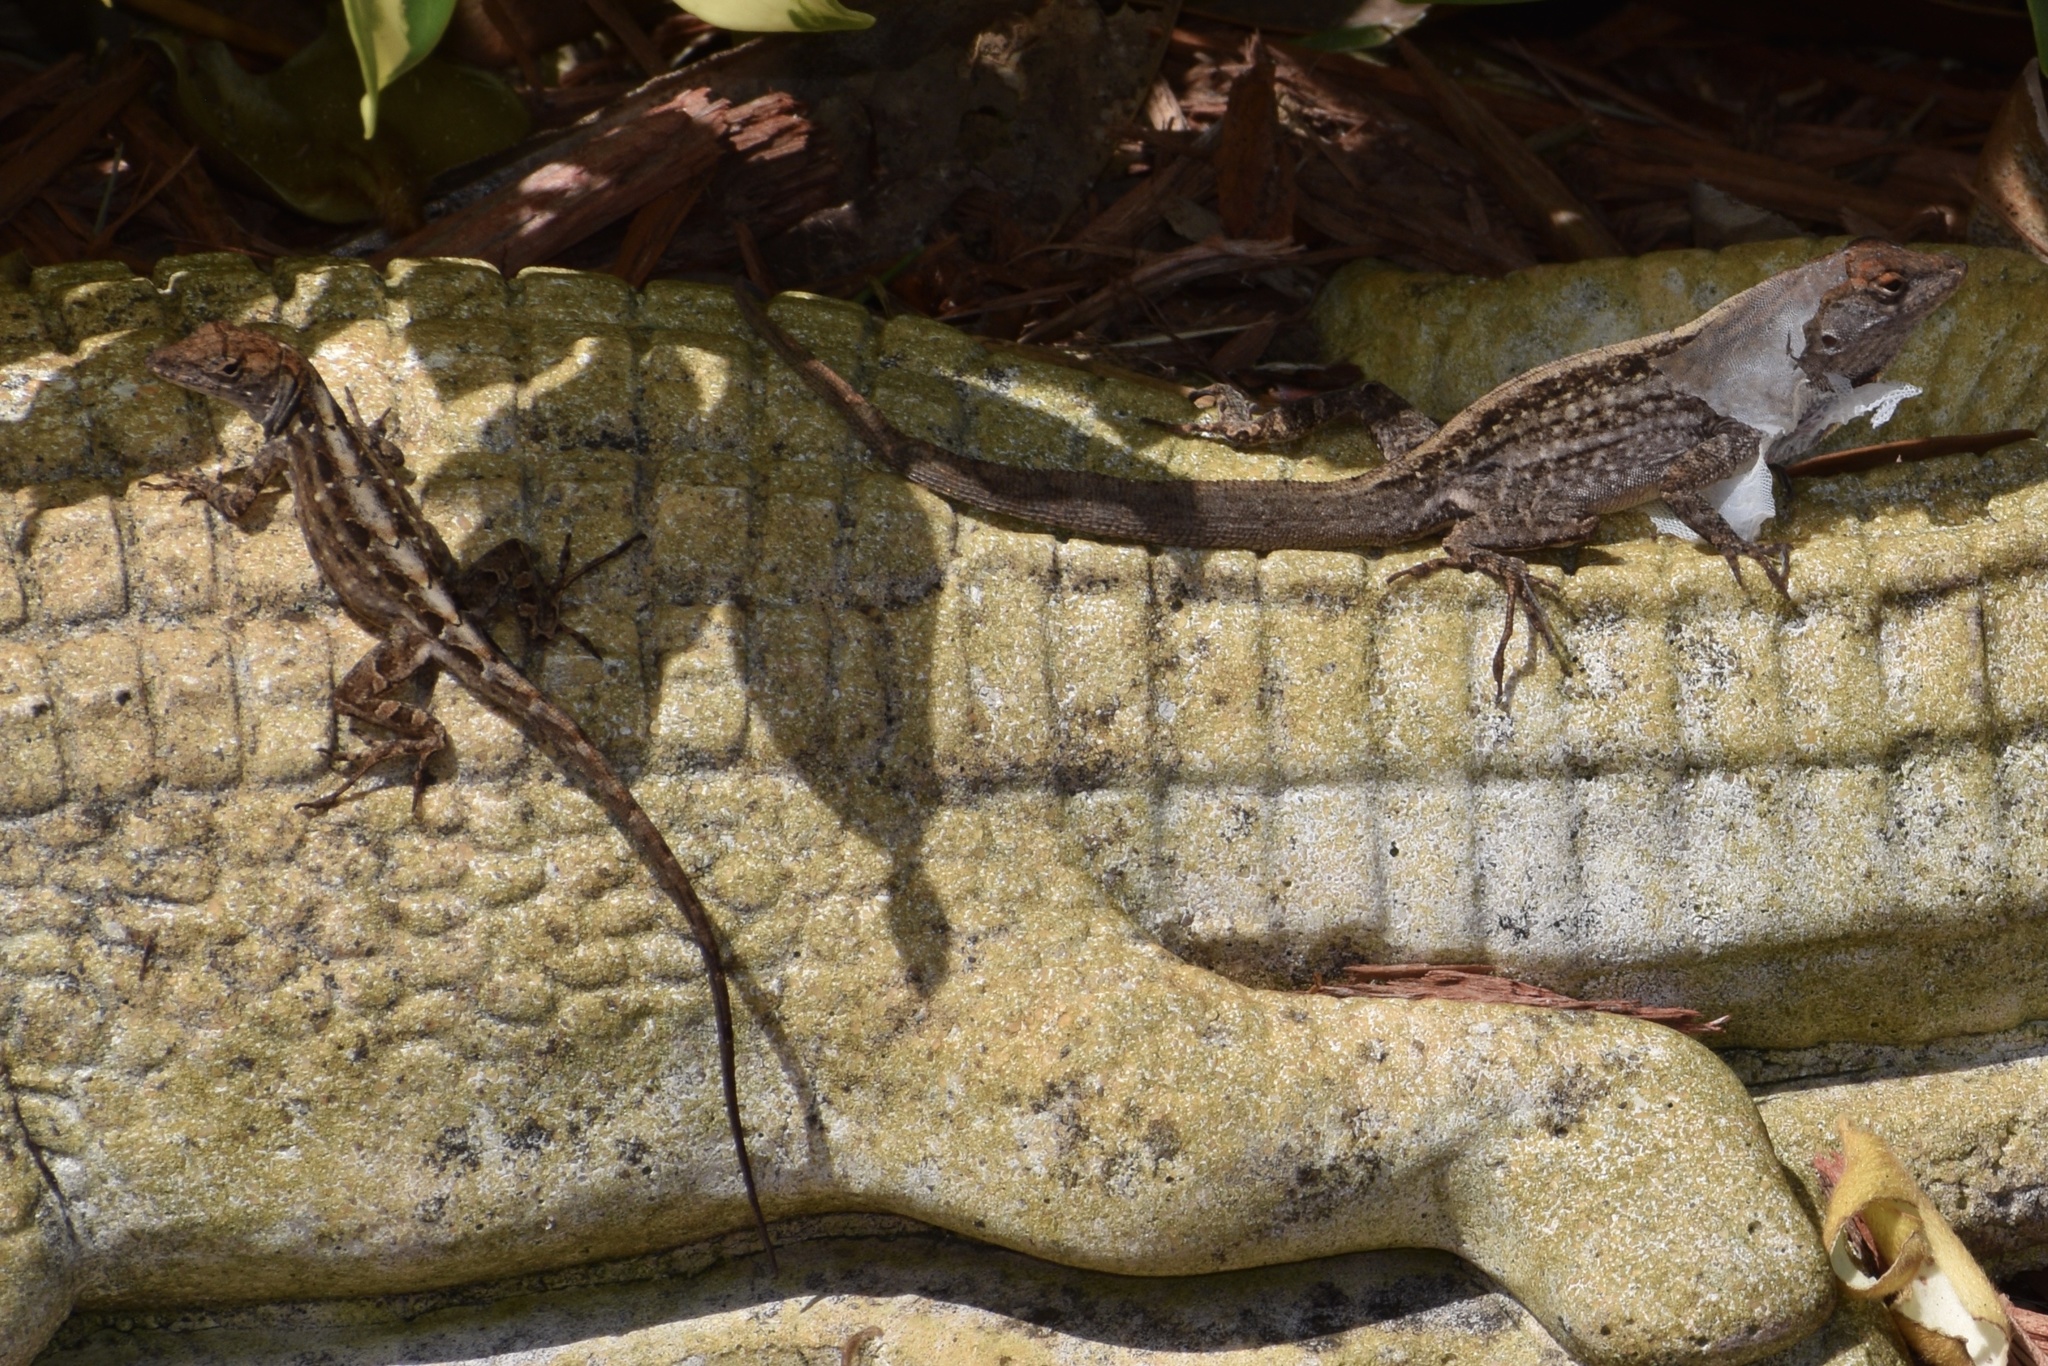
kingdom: Animalia
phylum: Chordata
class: Squamata
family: Dactyloidae
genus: Anolis
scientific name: Anolis sagrei
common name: Brown anole
